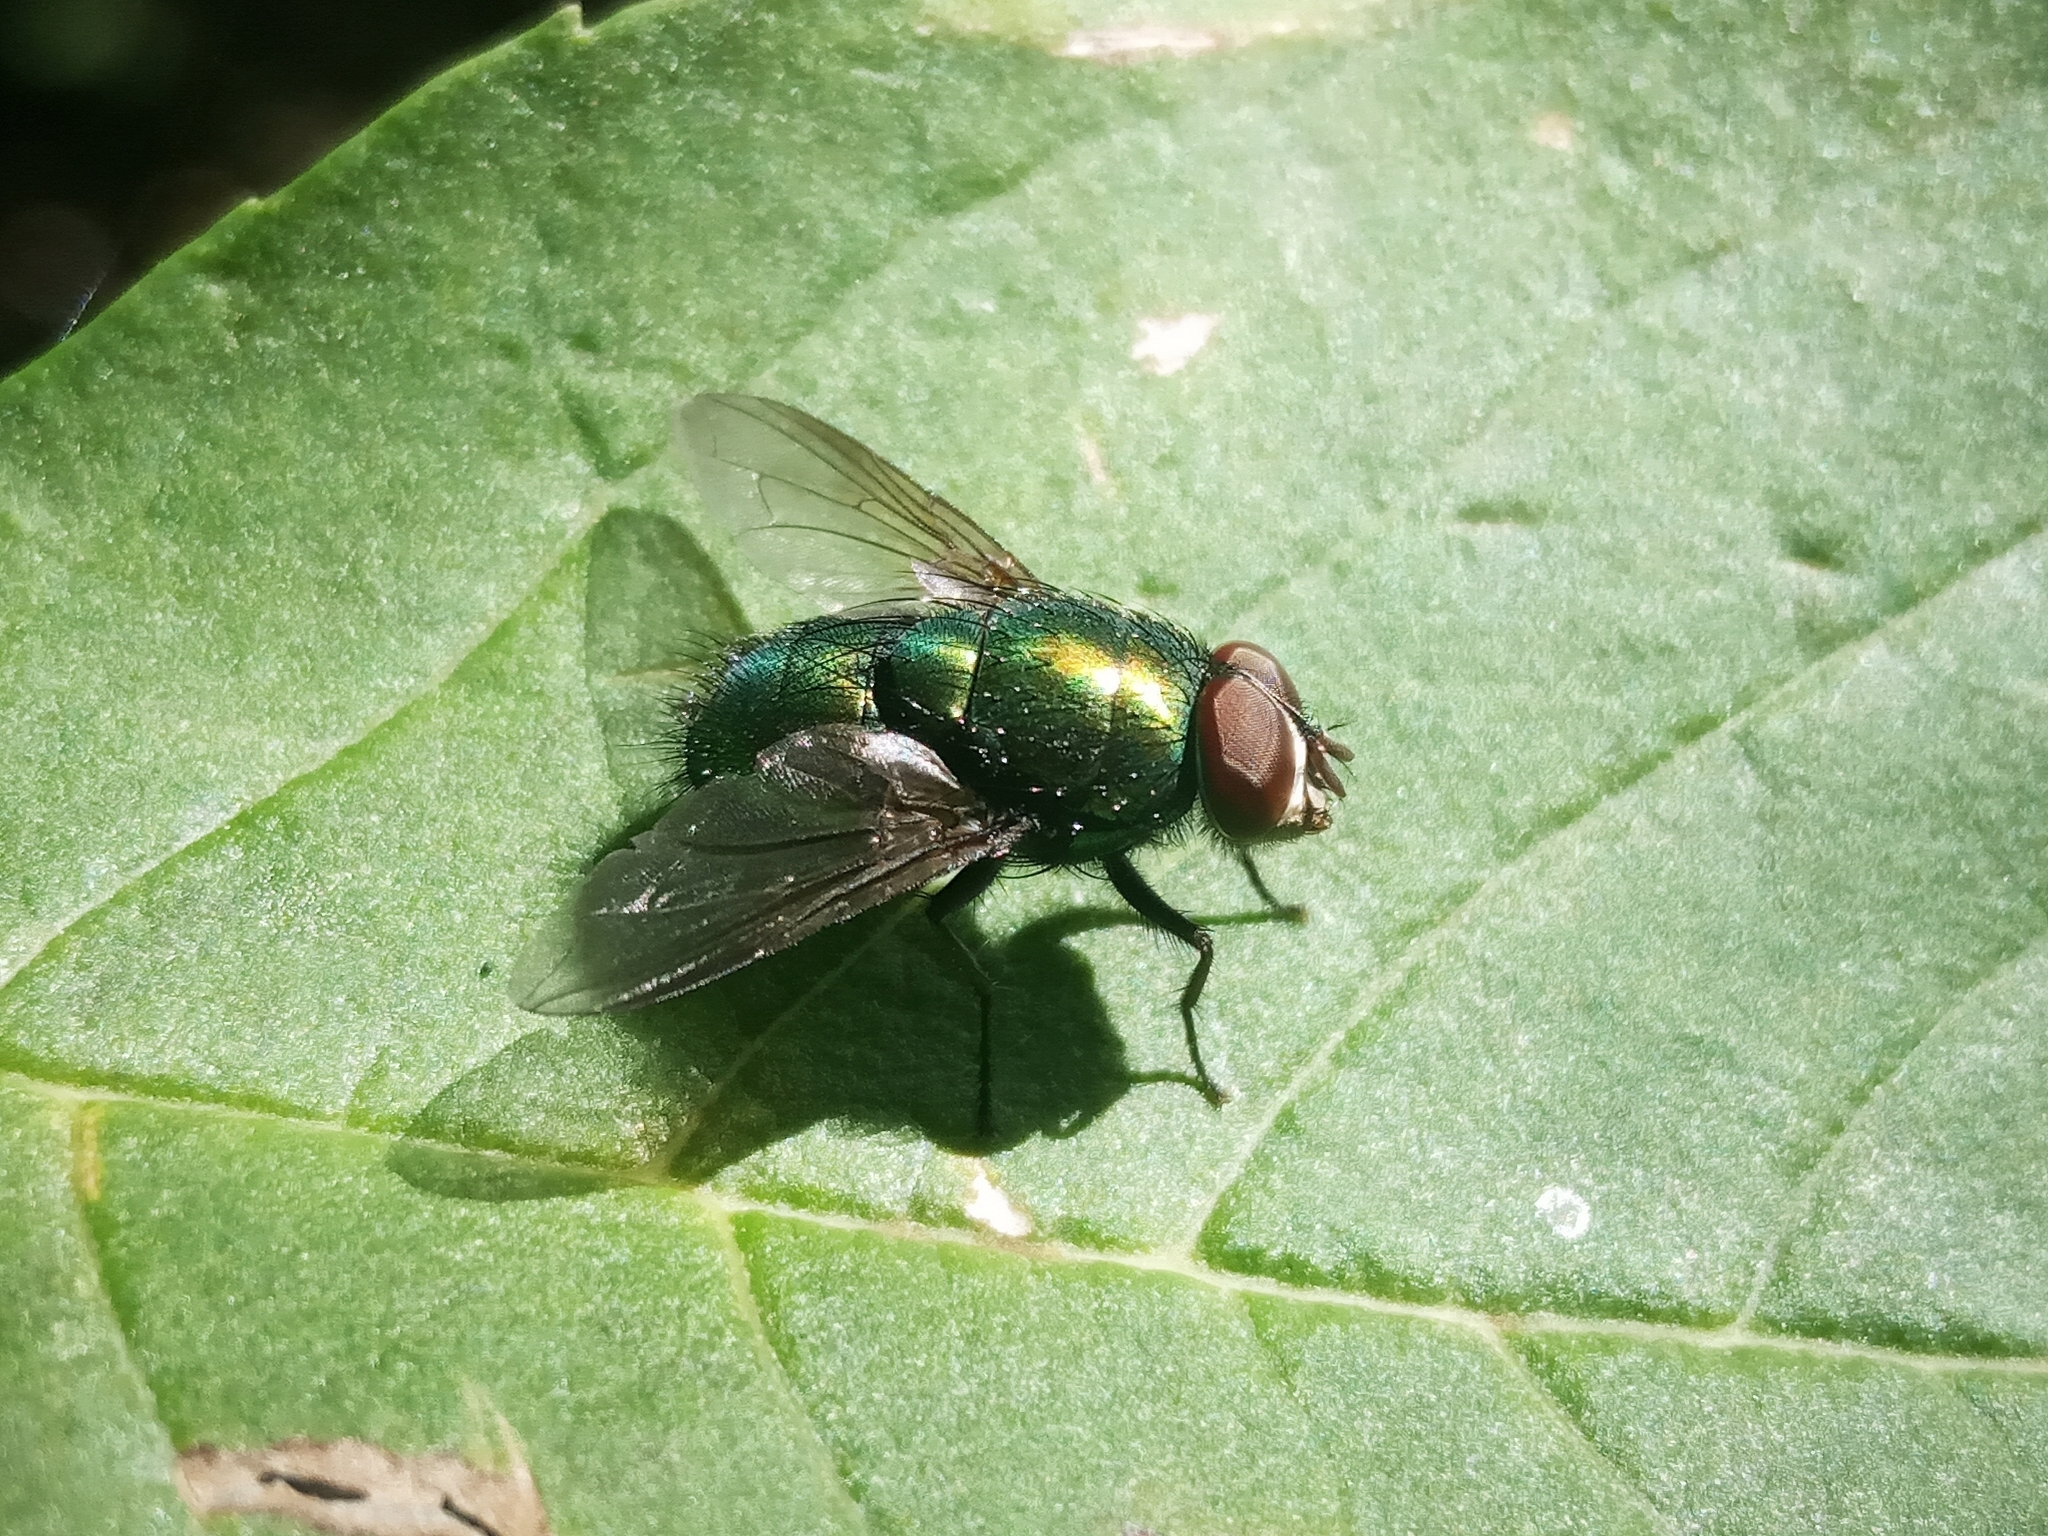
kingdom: Animalia
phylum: Arthropoda
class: Insecta
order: Diptera
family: Calliphoridae
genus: Lucilia
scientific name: Lucilia
